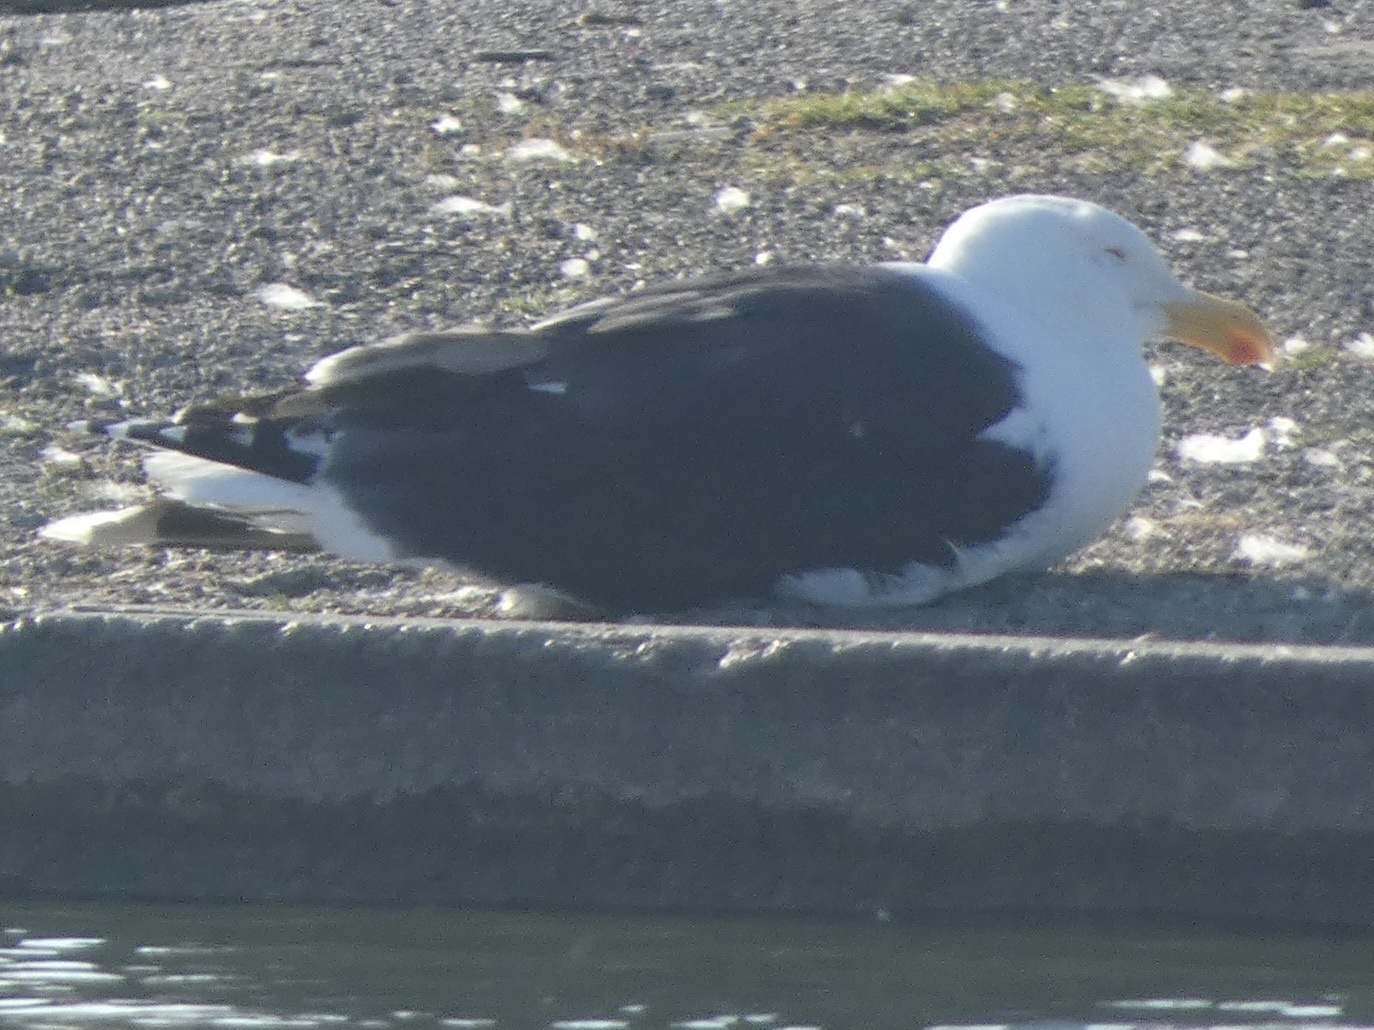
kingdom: Animalia
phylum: Chordata
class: Aves
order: Charadriiformes
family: Laridae
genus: Larus
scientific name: Larus marinus
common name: Great black-backed gull
